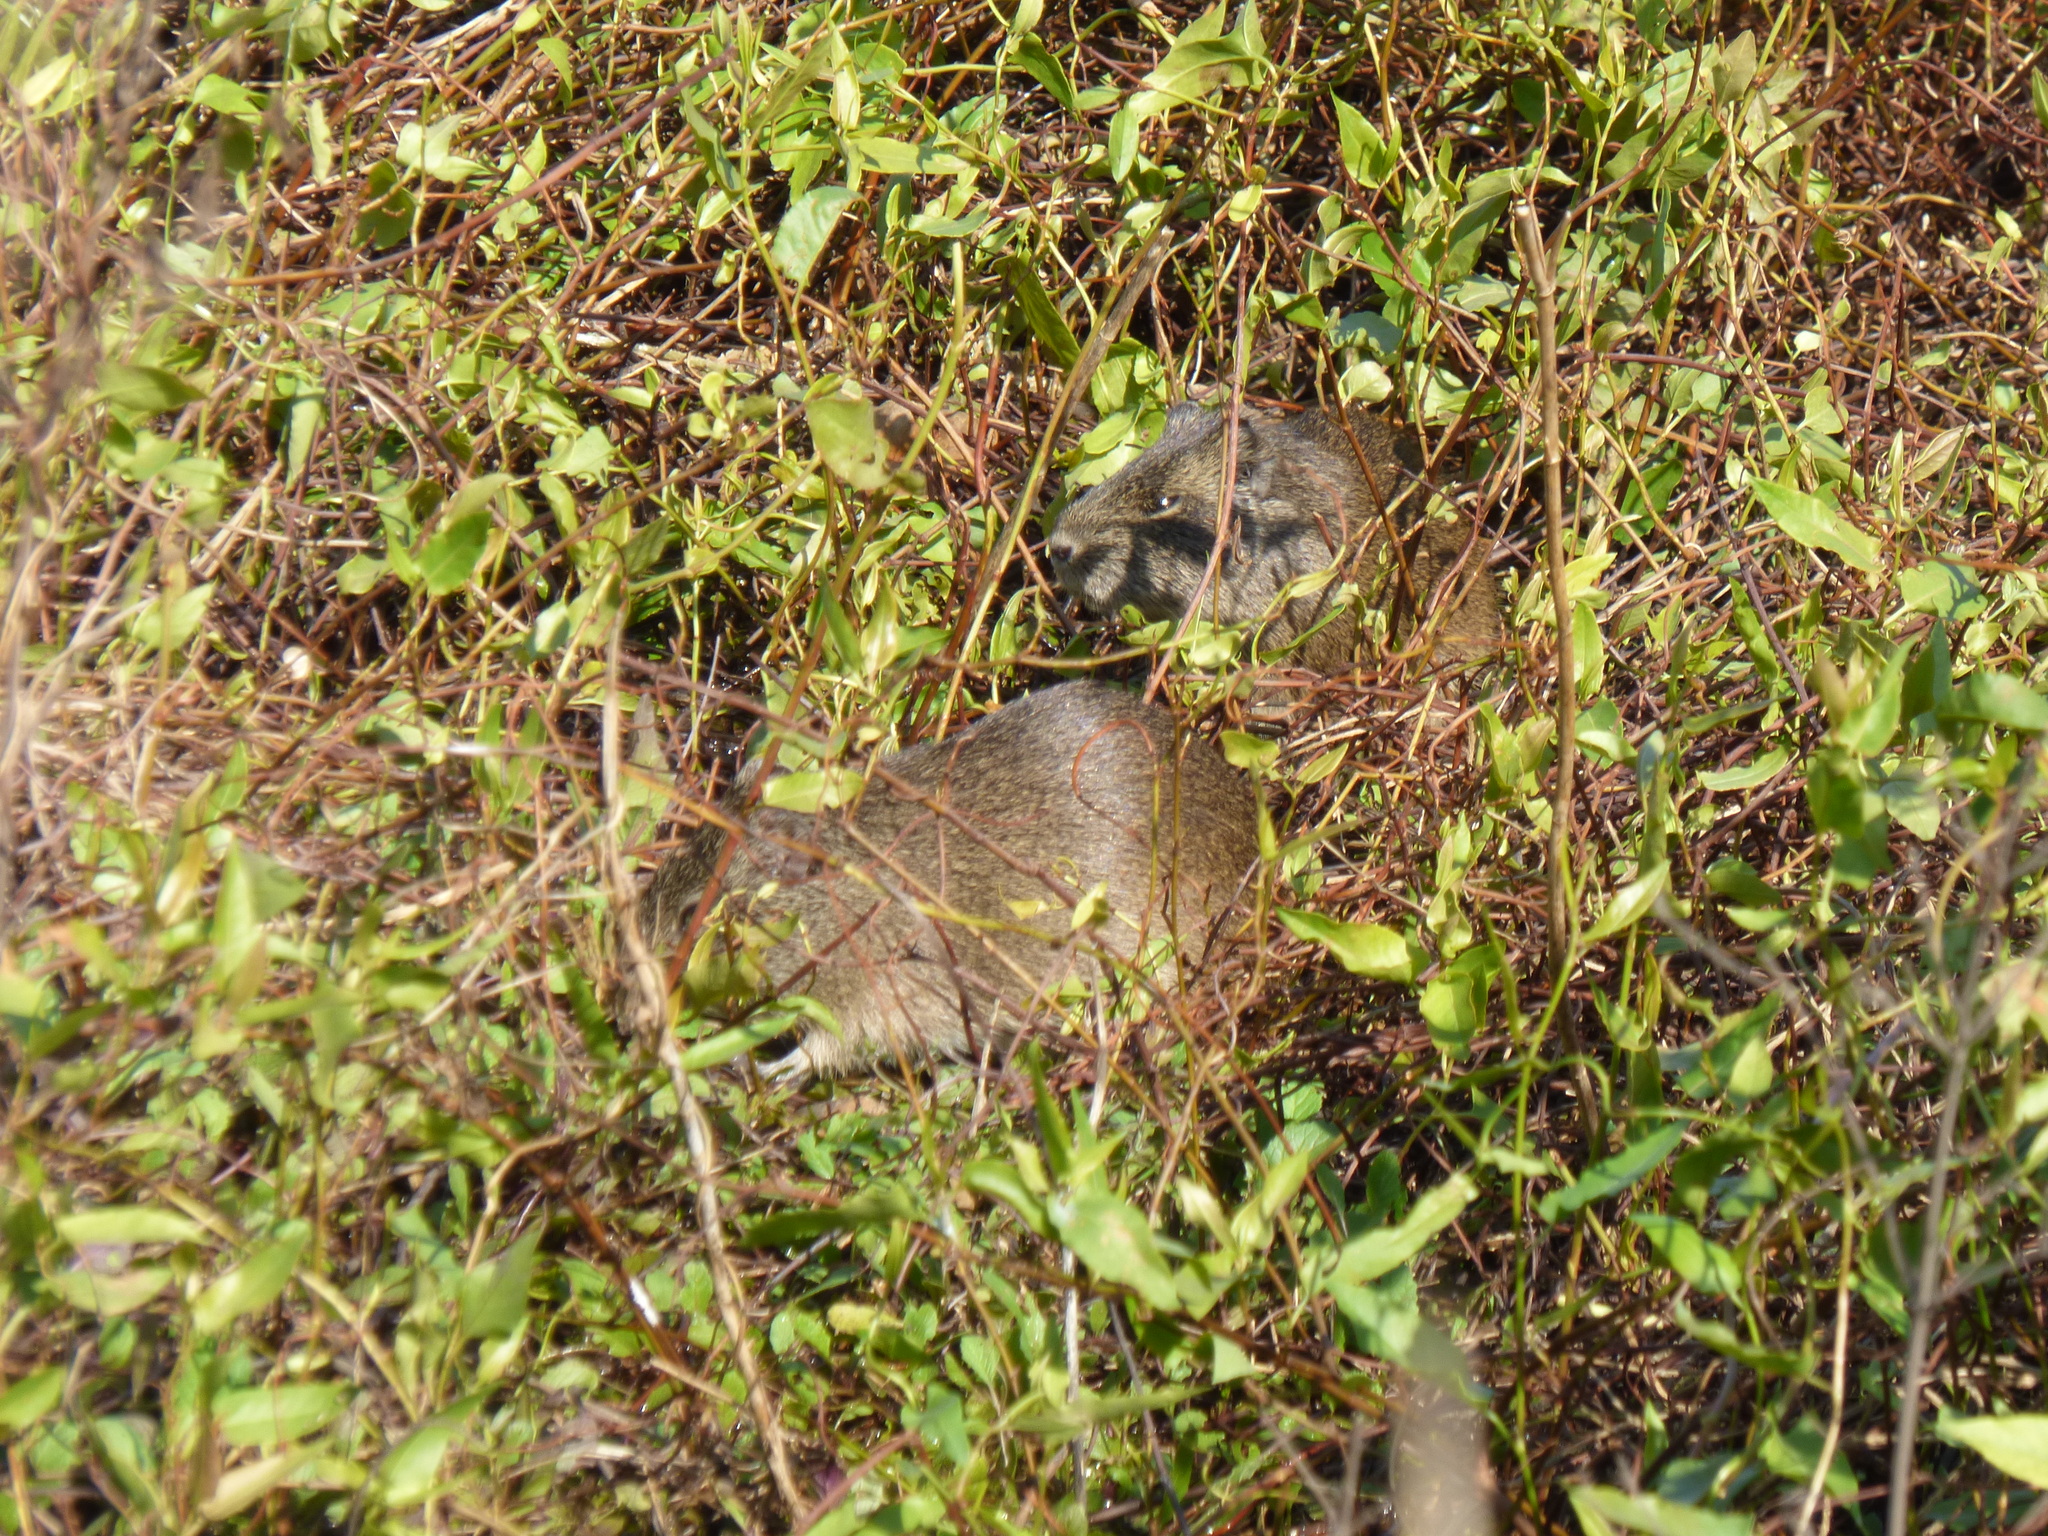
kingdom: Animalia
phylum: Chordata
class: Mammalia
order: Rodentia
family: Caviidae
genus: Cavia
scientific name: Cavia aperea
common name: Brazilian guinea pig
